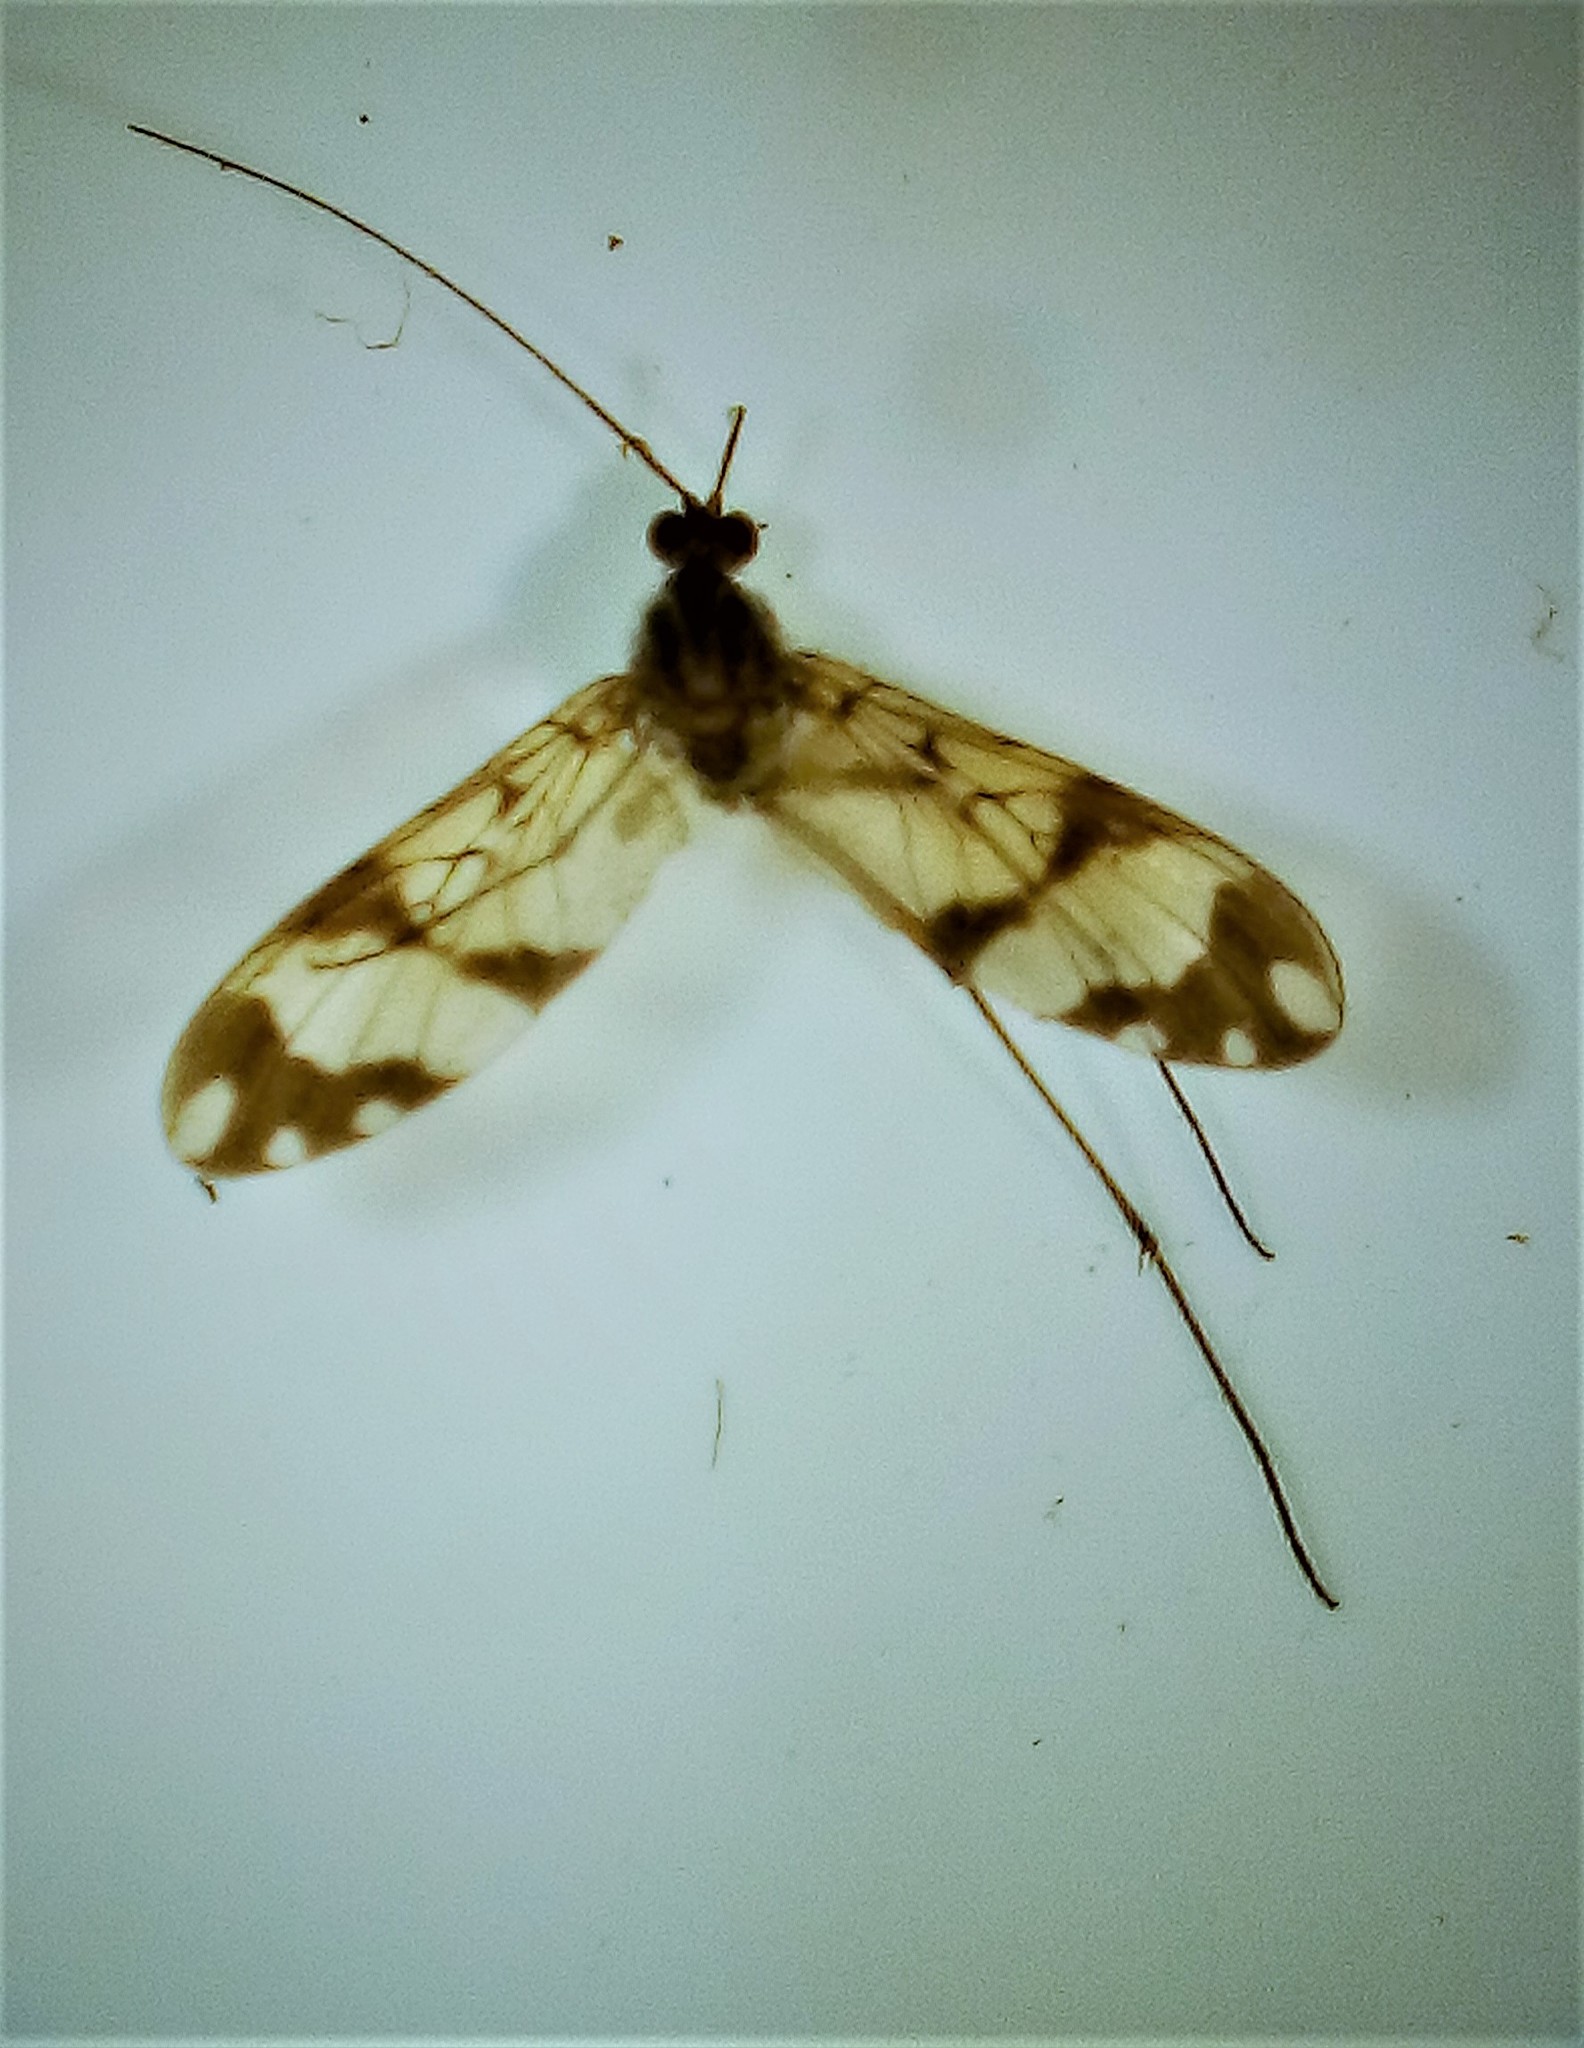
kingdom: Animalia
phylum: Arthropoda
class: Insecta
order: Diptera
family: Keroplatidae
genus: Macrocera
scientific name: Macrocera hudsoni
